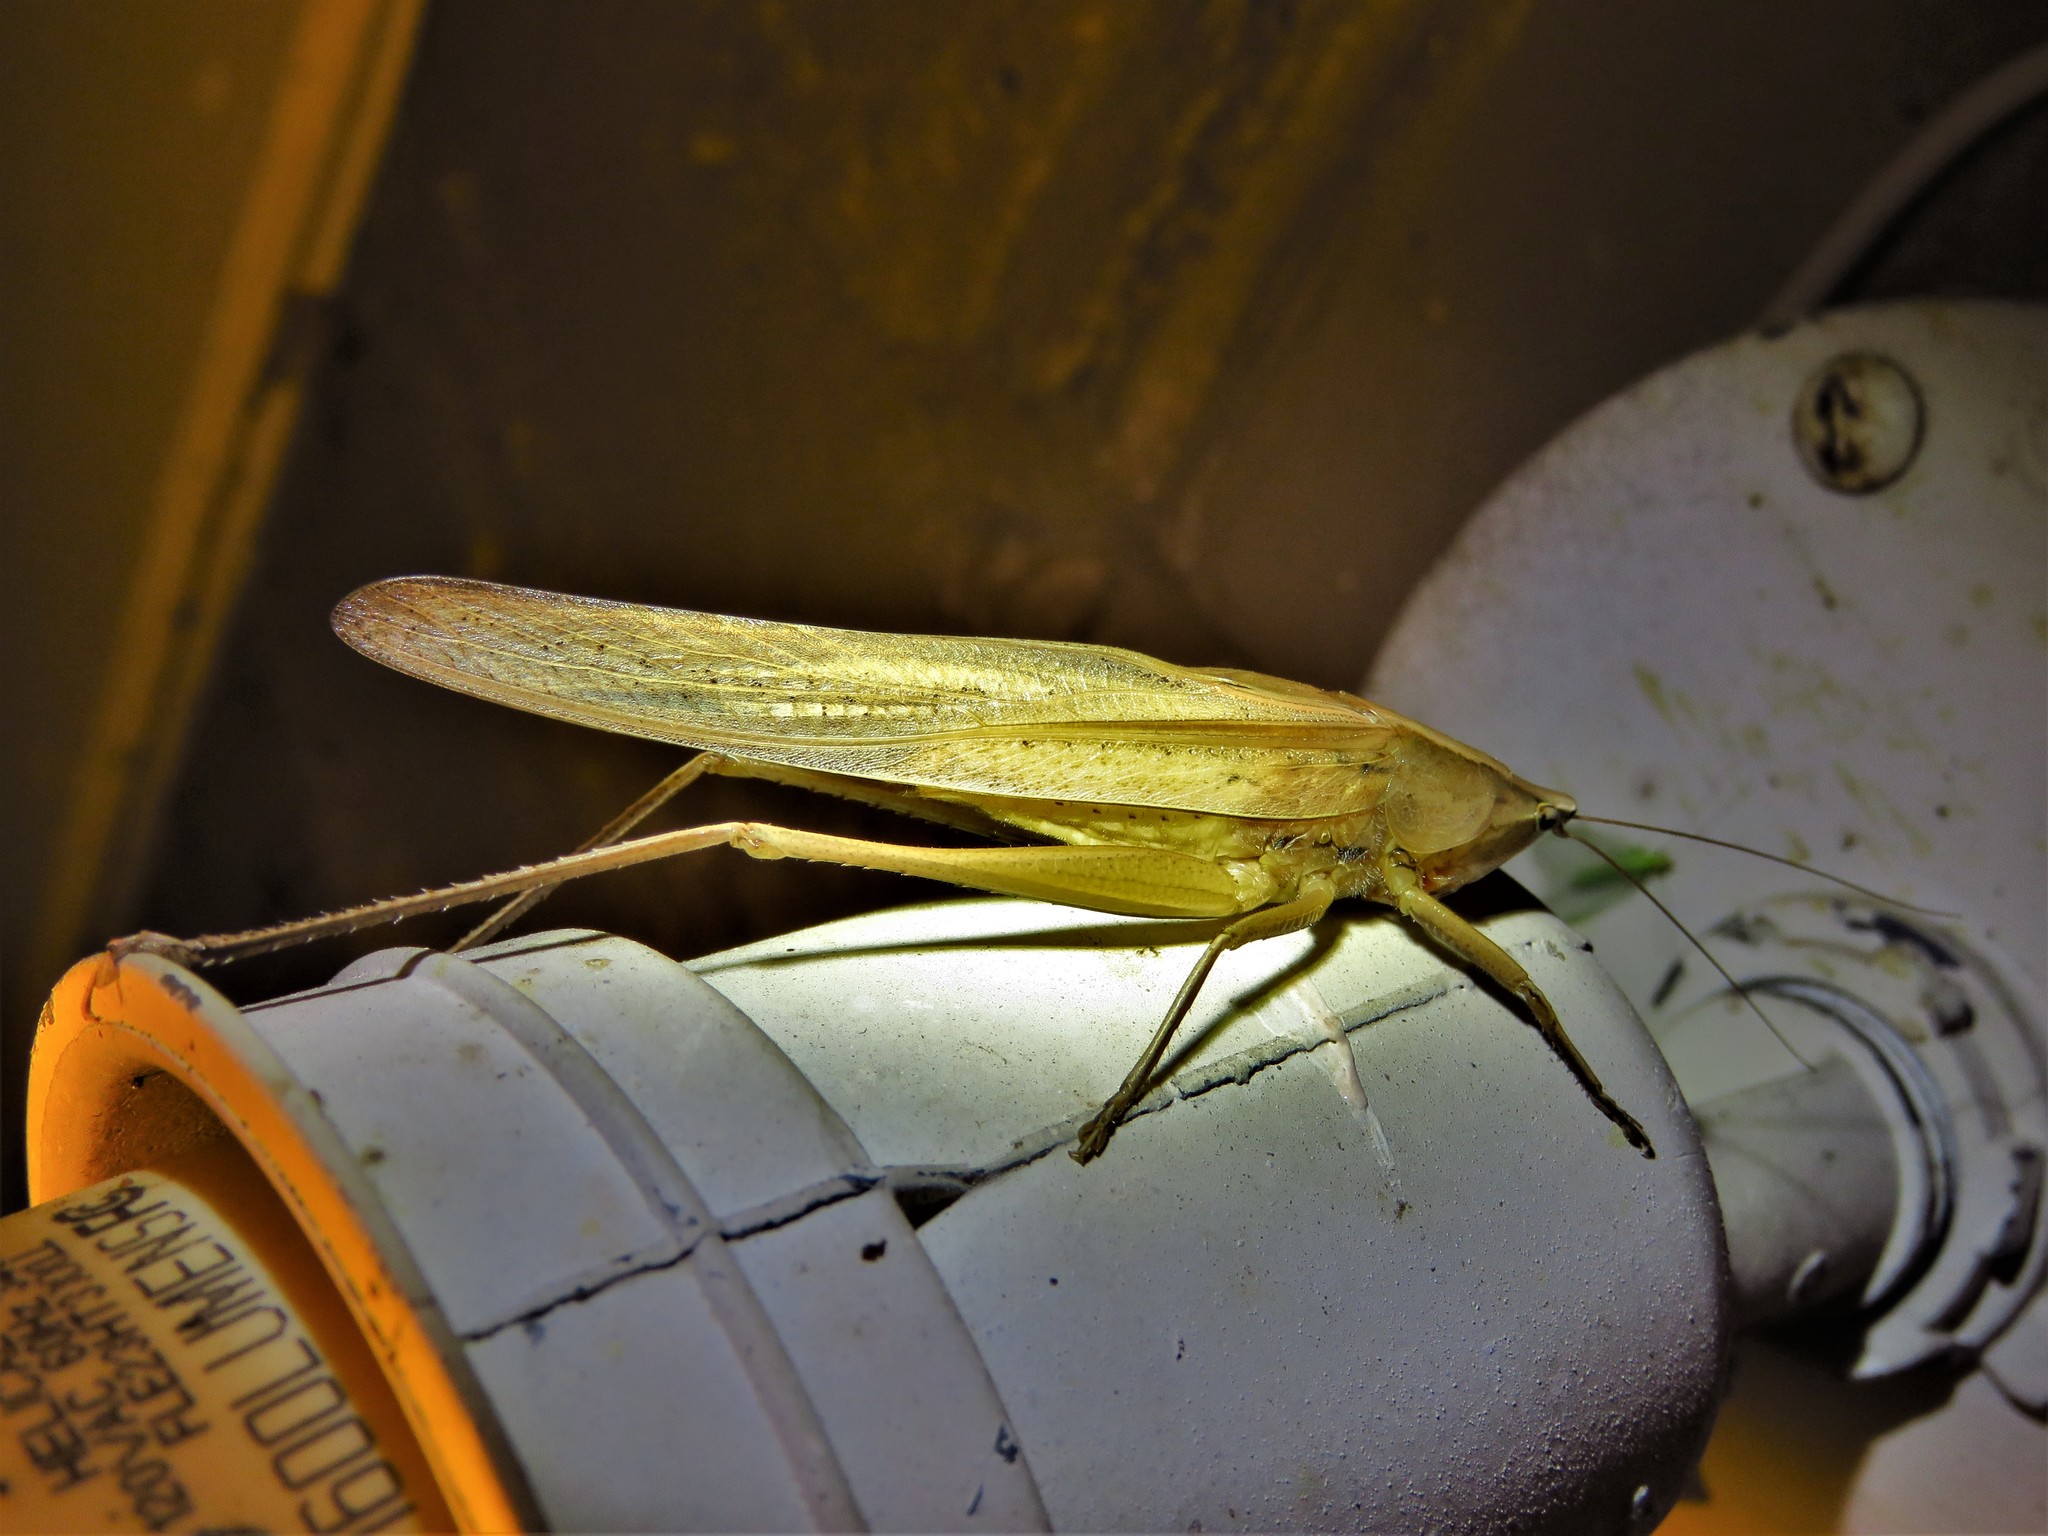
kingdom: Animalia
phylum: Arthropoda
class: Insecta
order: Orthoptera
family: Tettigoniidae
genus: Neoconocephalus
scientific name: Neoconocephalus triops
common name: Broad-tipped conehead
